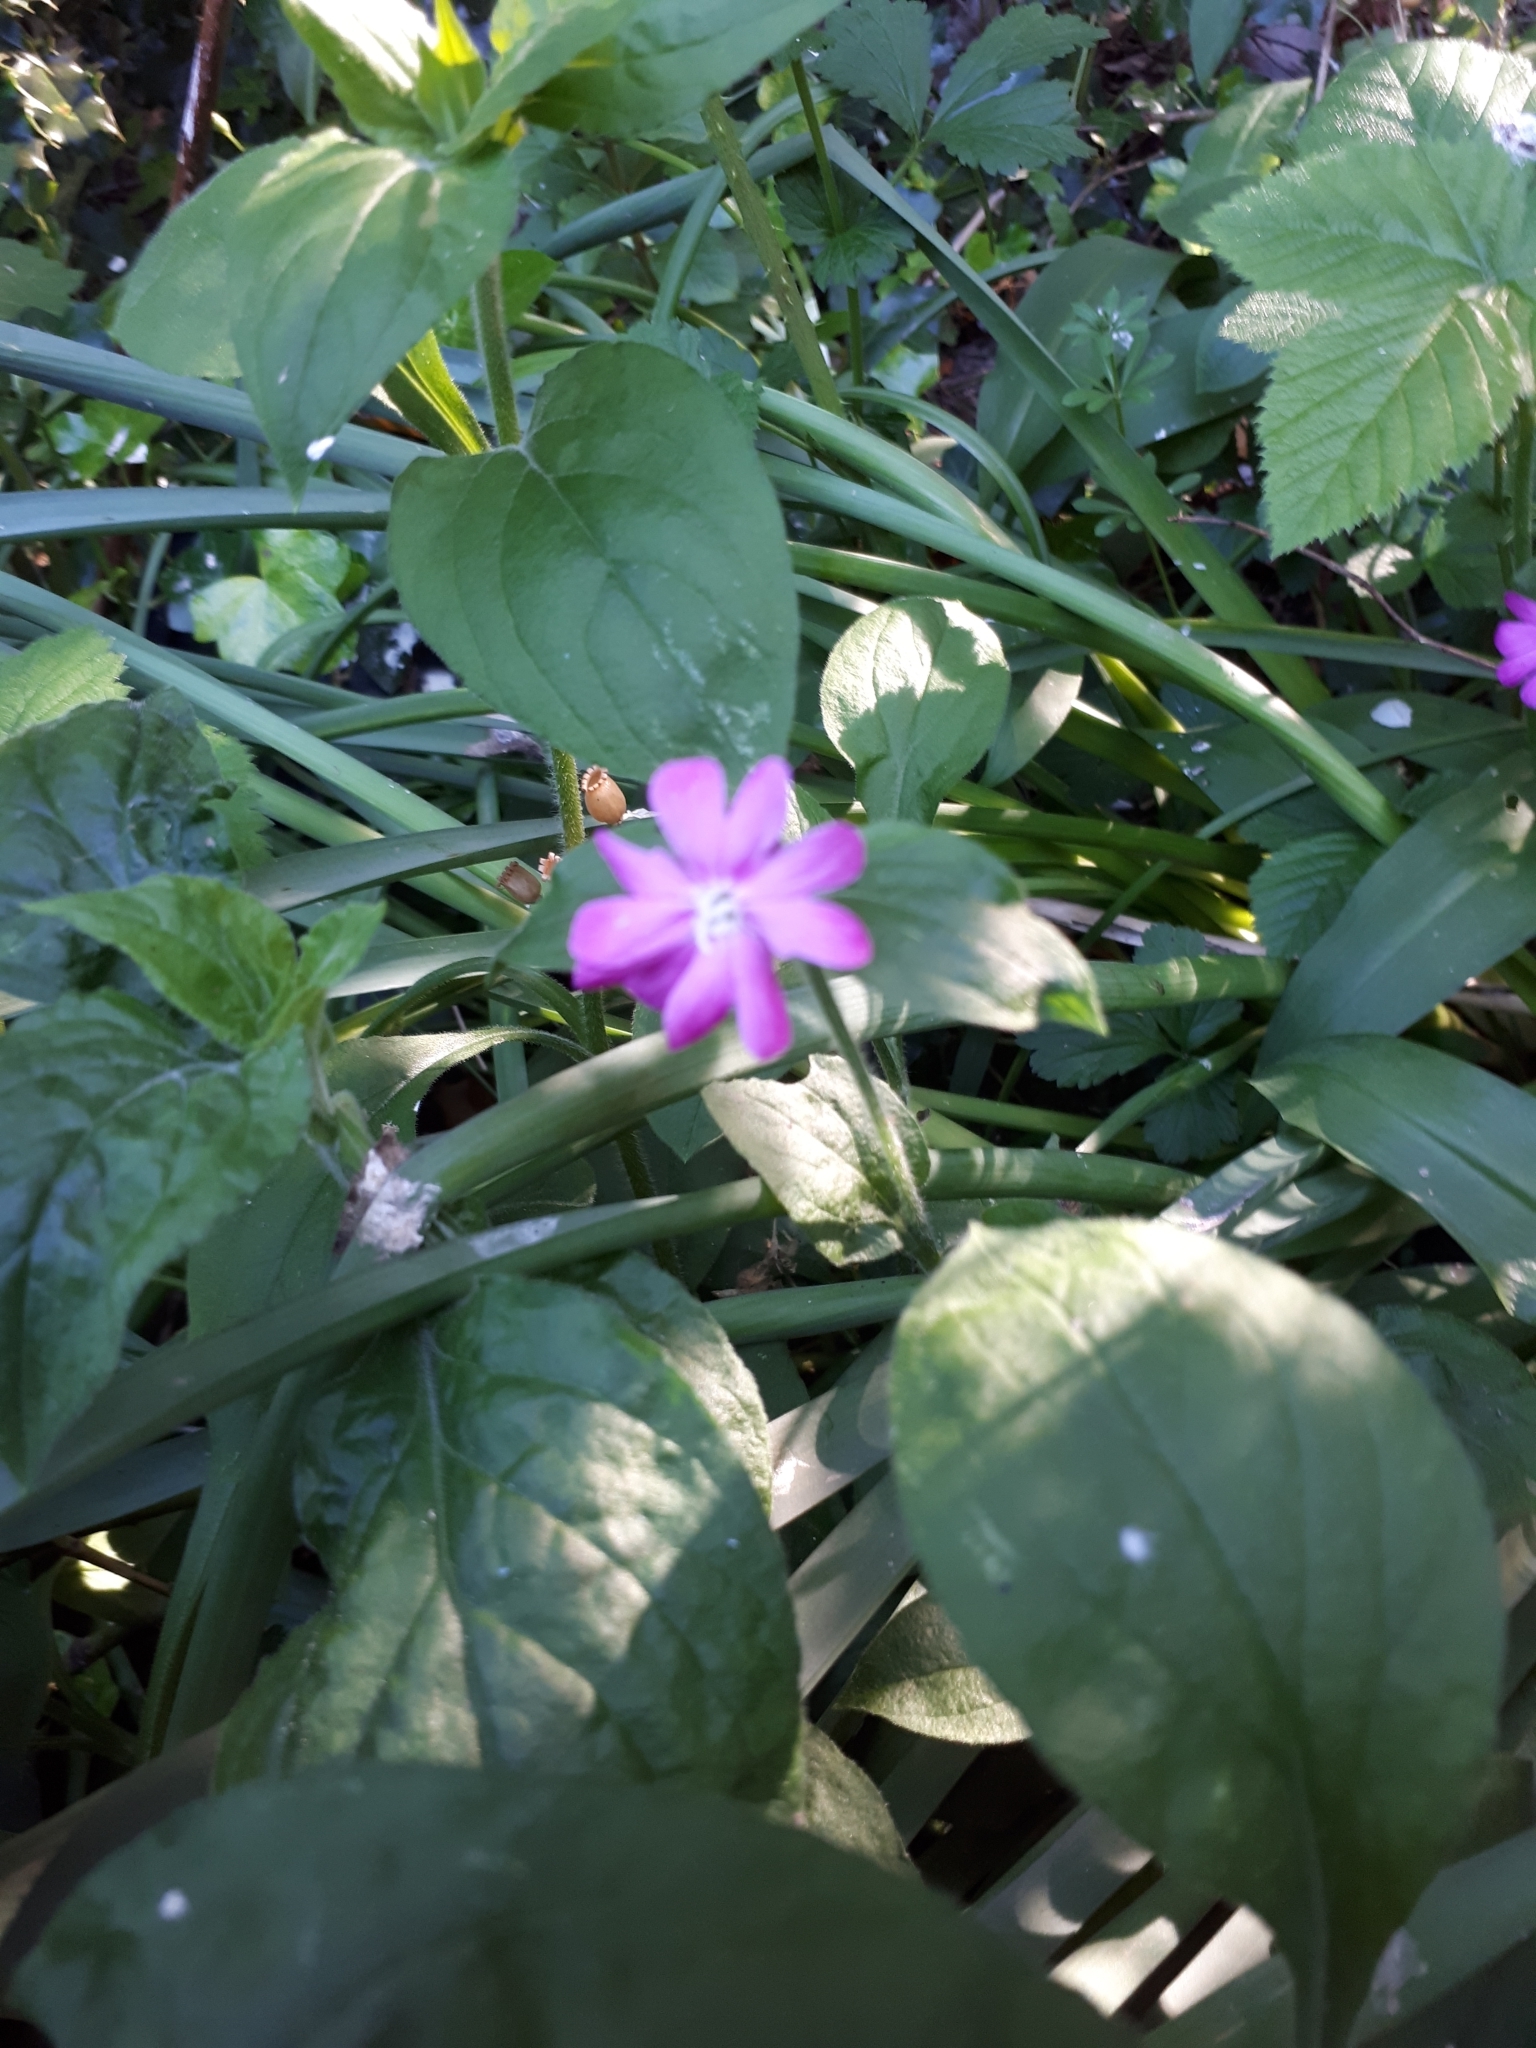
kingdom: Plantae
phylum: Tracheophyta
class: Magnoliopsida
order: Caryophyllales
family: Caryophyllaceae
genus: Silene
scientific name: Silene dioica
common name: Red campion
